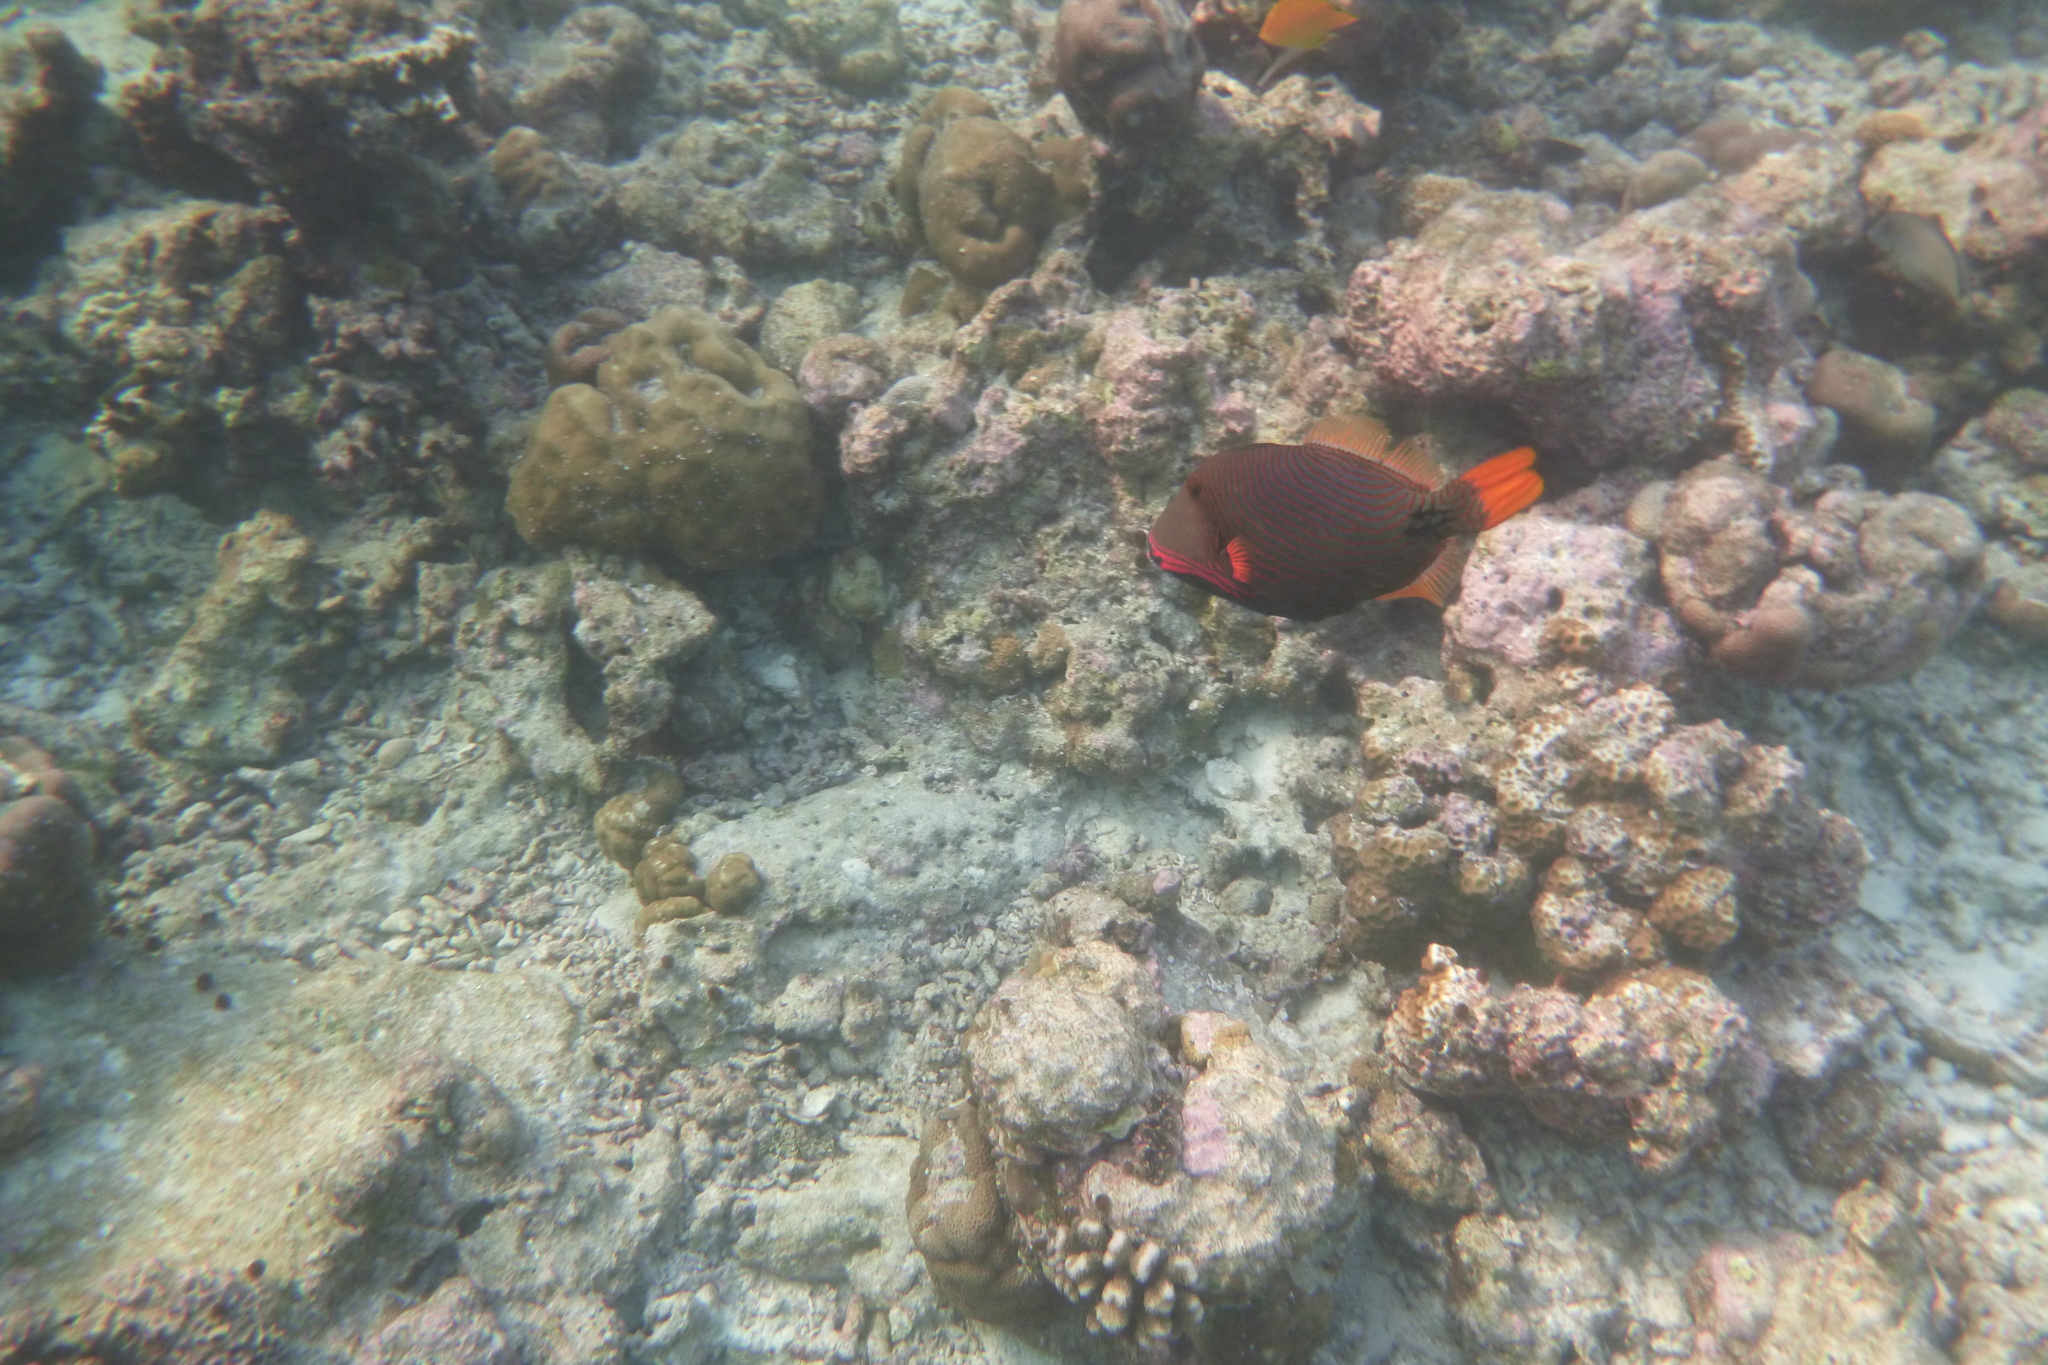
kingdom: Animalia
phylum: Chordata
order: Tetraodontiformes
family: Balistidae
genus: Balistapus
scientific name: Balistapus undulatus
